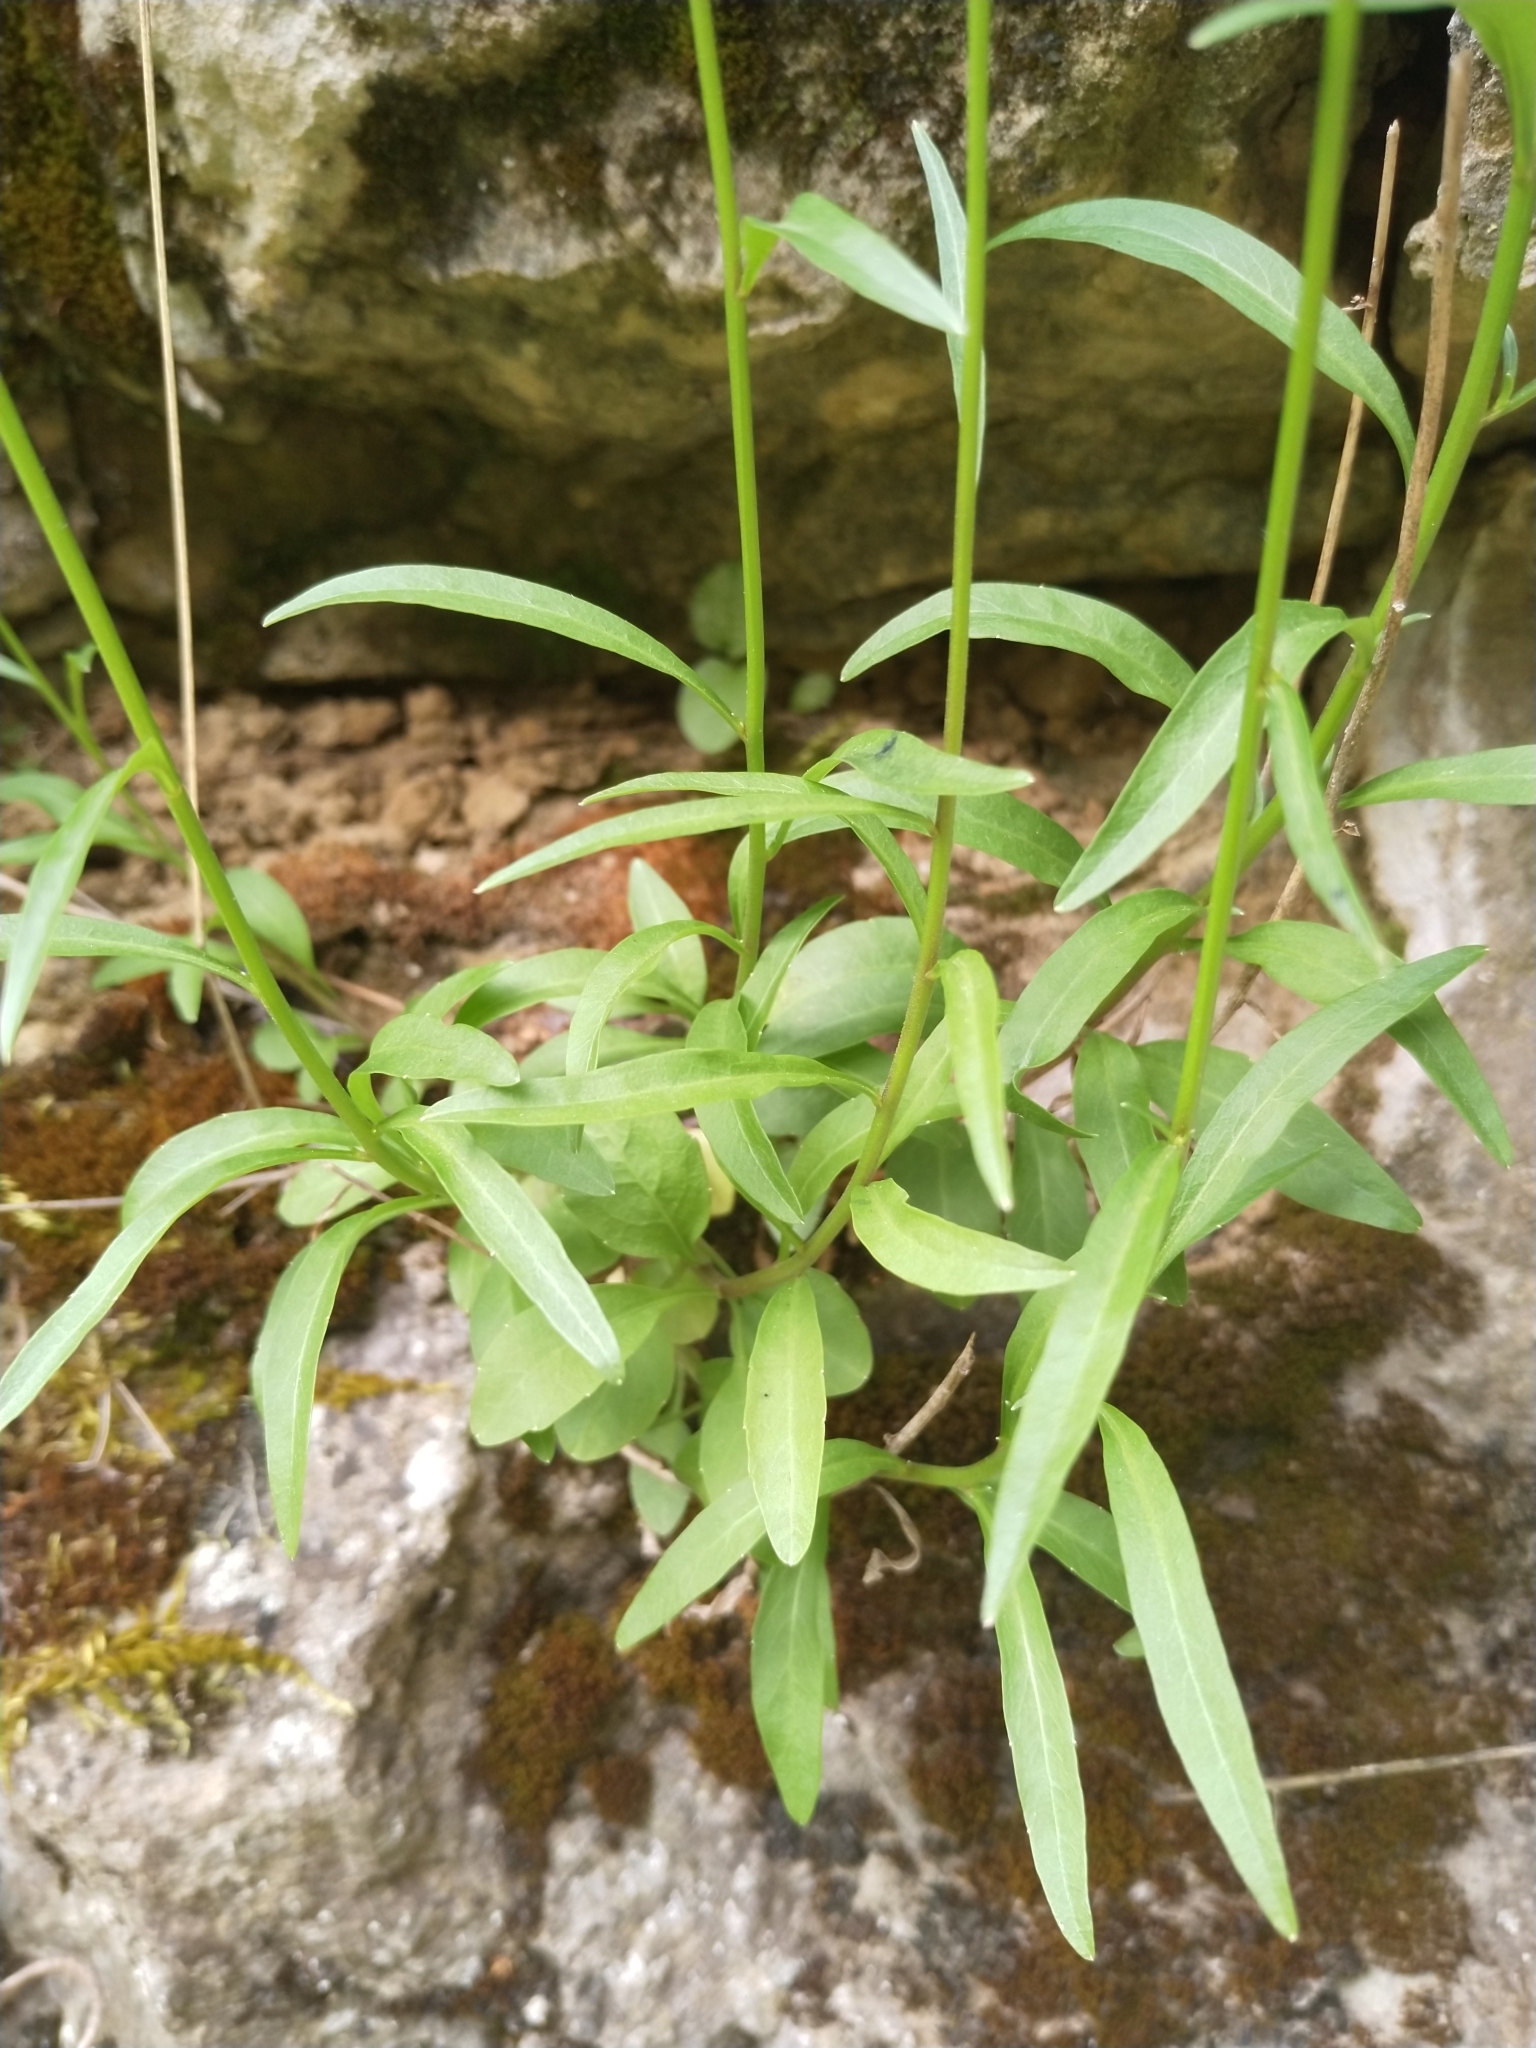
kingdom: Plantae
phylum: Tracheophyta
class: Magnoliopsida
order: Asterales
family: Campanulaceae
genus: Campanula
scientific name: Campanula rotundifolia
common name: Harebell
